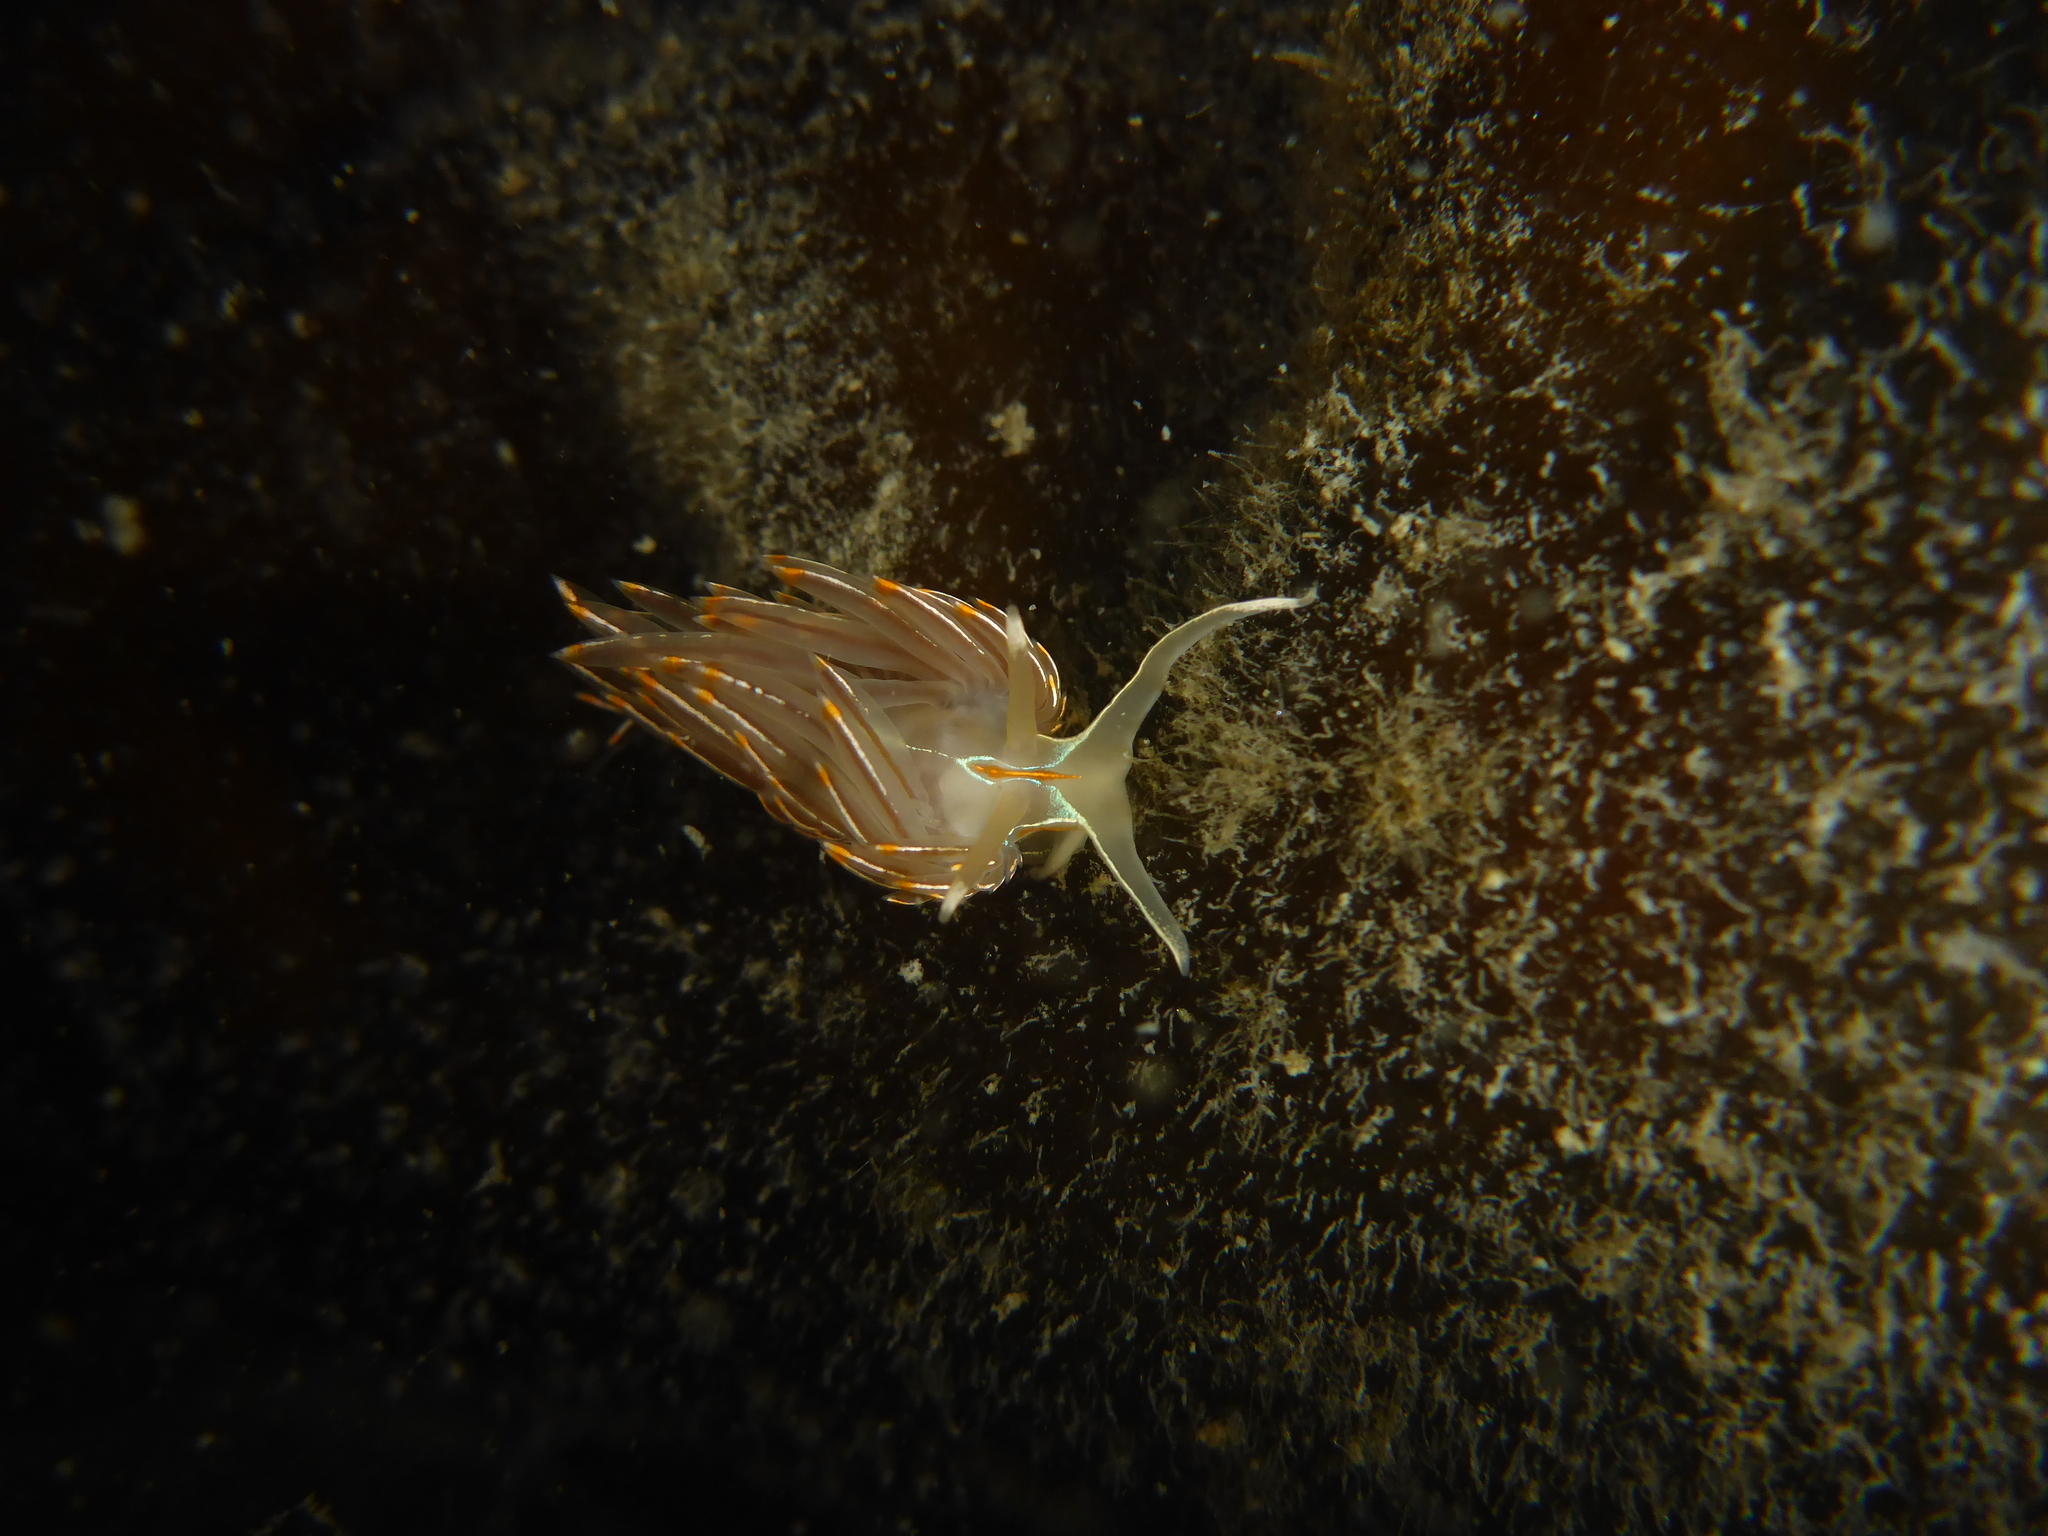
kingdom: Animalia
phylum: Mollusca
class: Gastropoda
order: Nudibranchia
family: Myrrhinidae
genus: Hermissenda
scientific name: Hermissenda crassicornis
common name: Hermissenda
